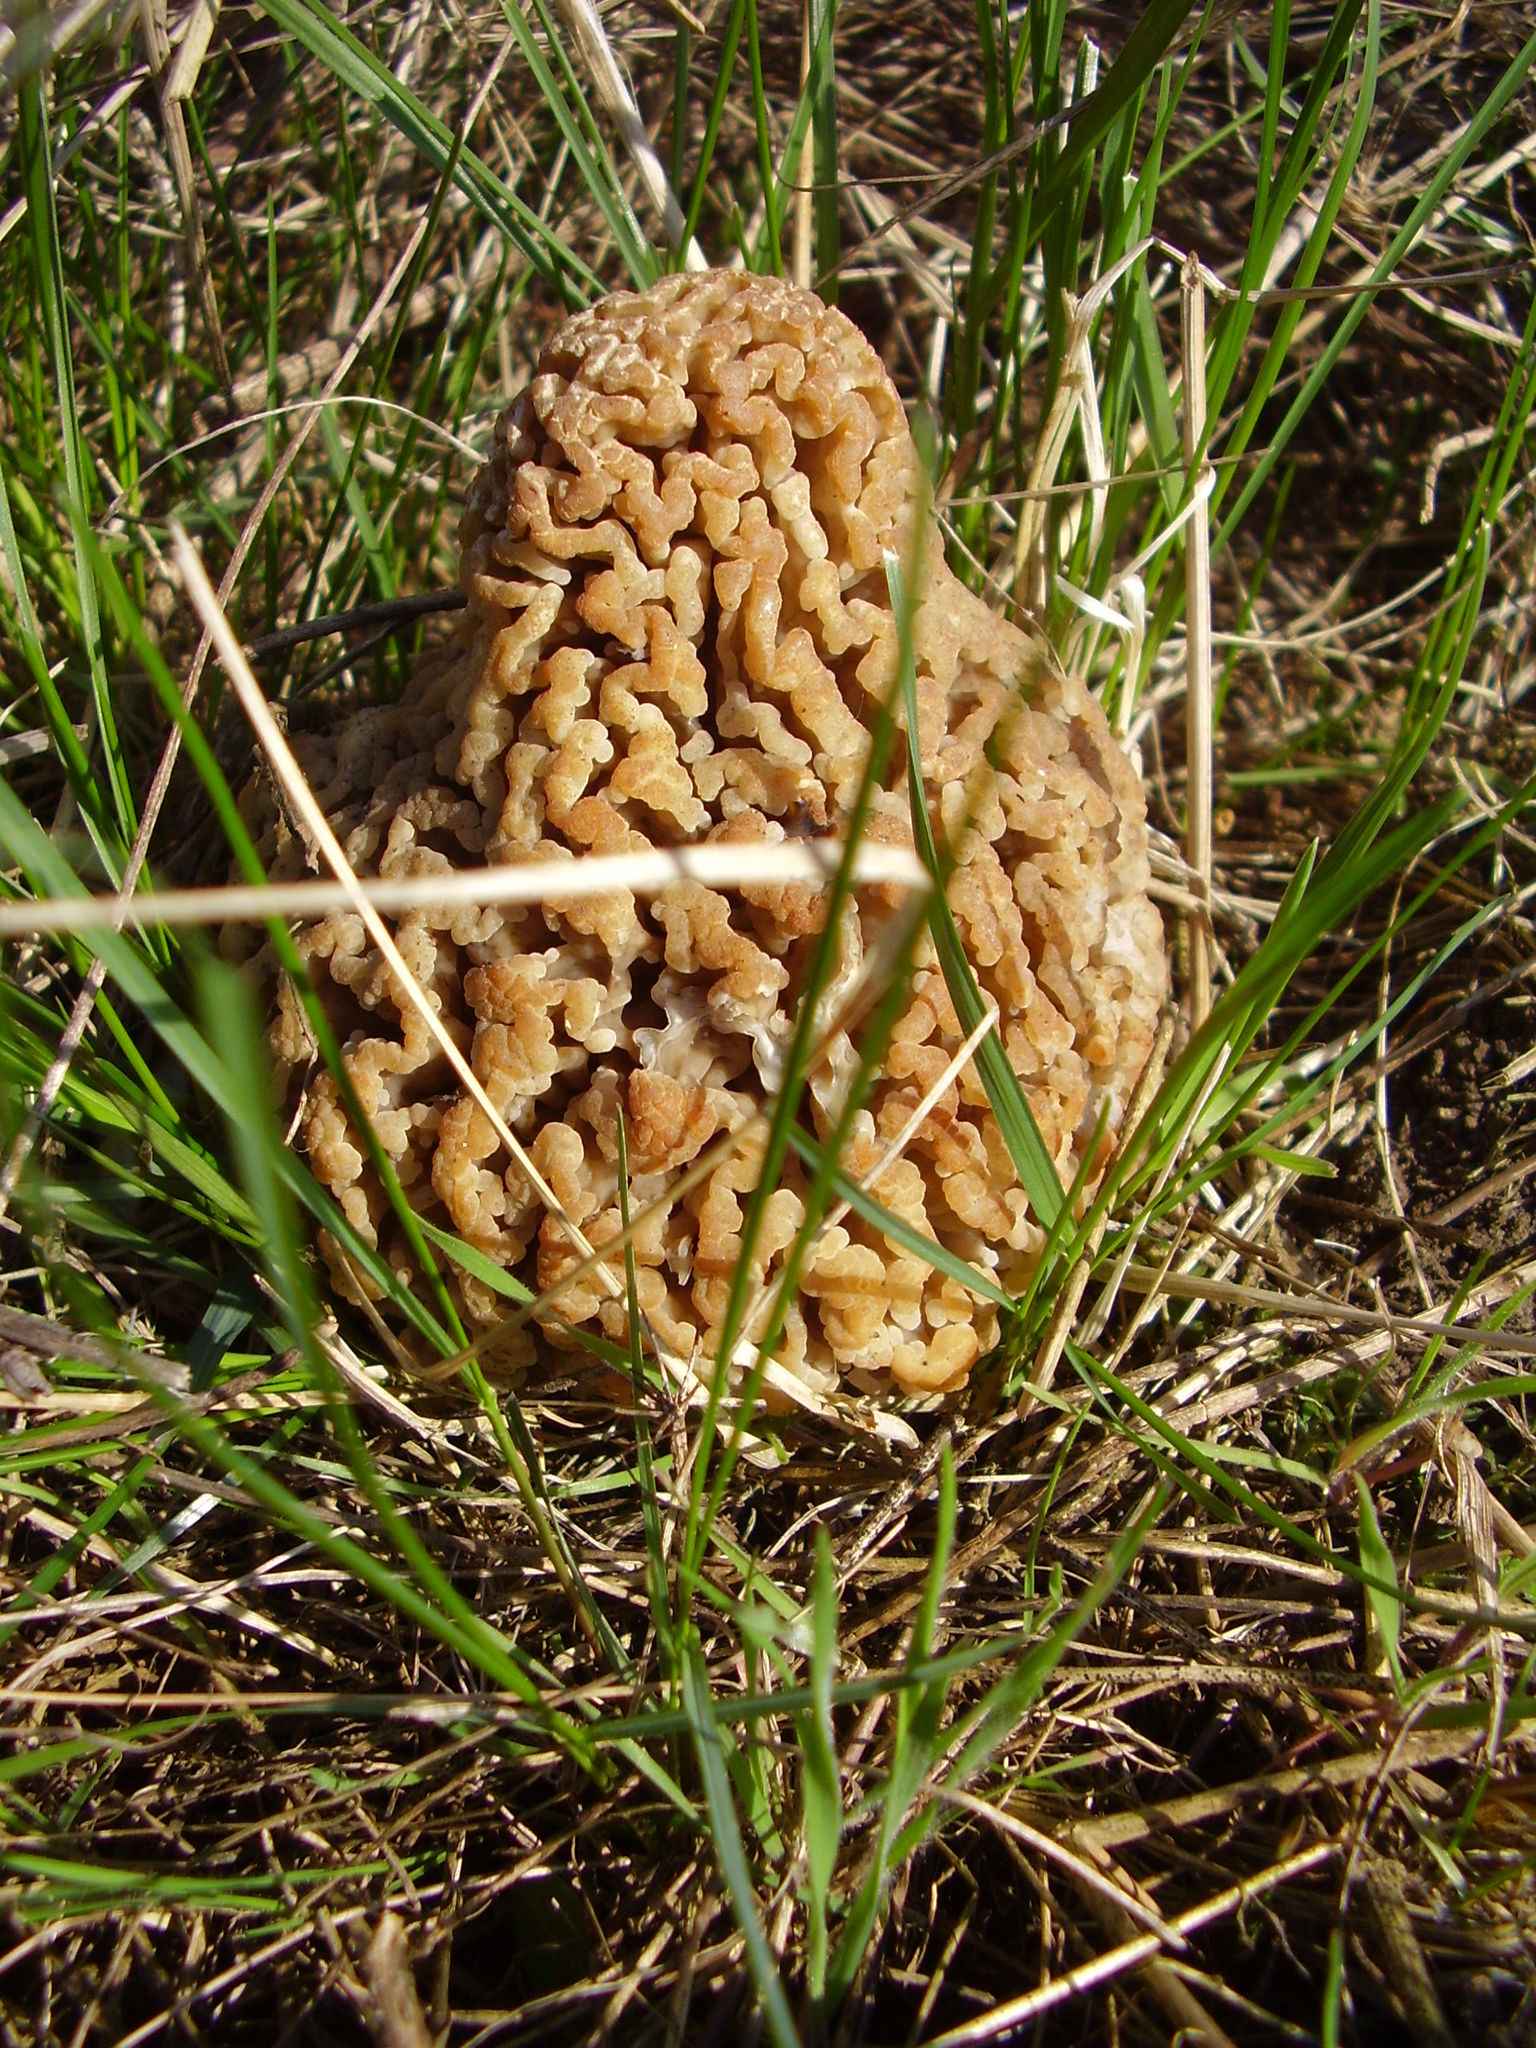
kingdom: Fungi
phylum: Ascomycota
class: Pezizomycetes
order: Pezizales
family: Morchellaceae
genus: Morchella
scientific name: Morchella steppicola
